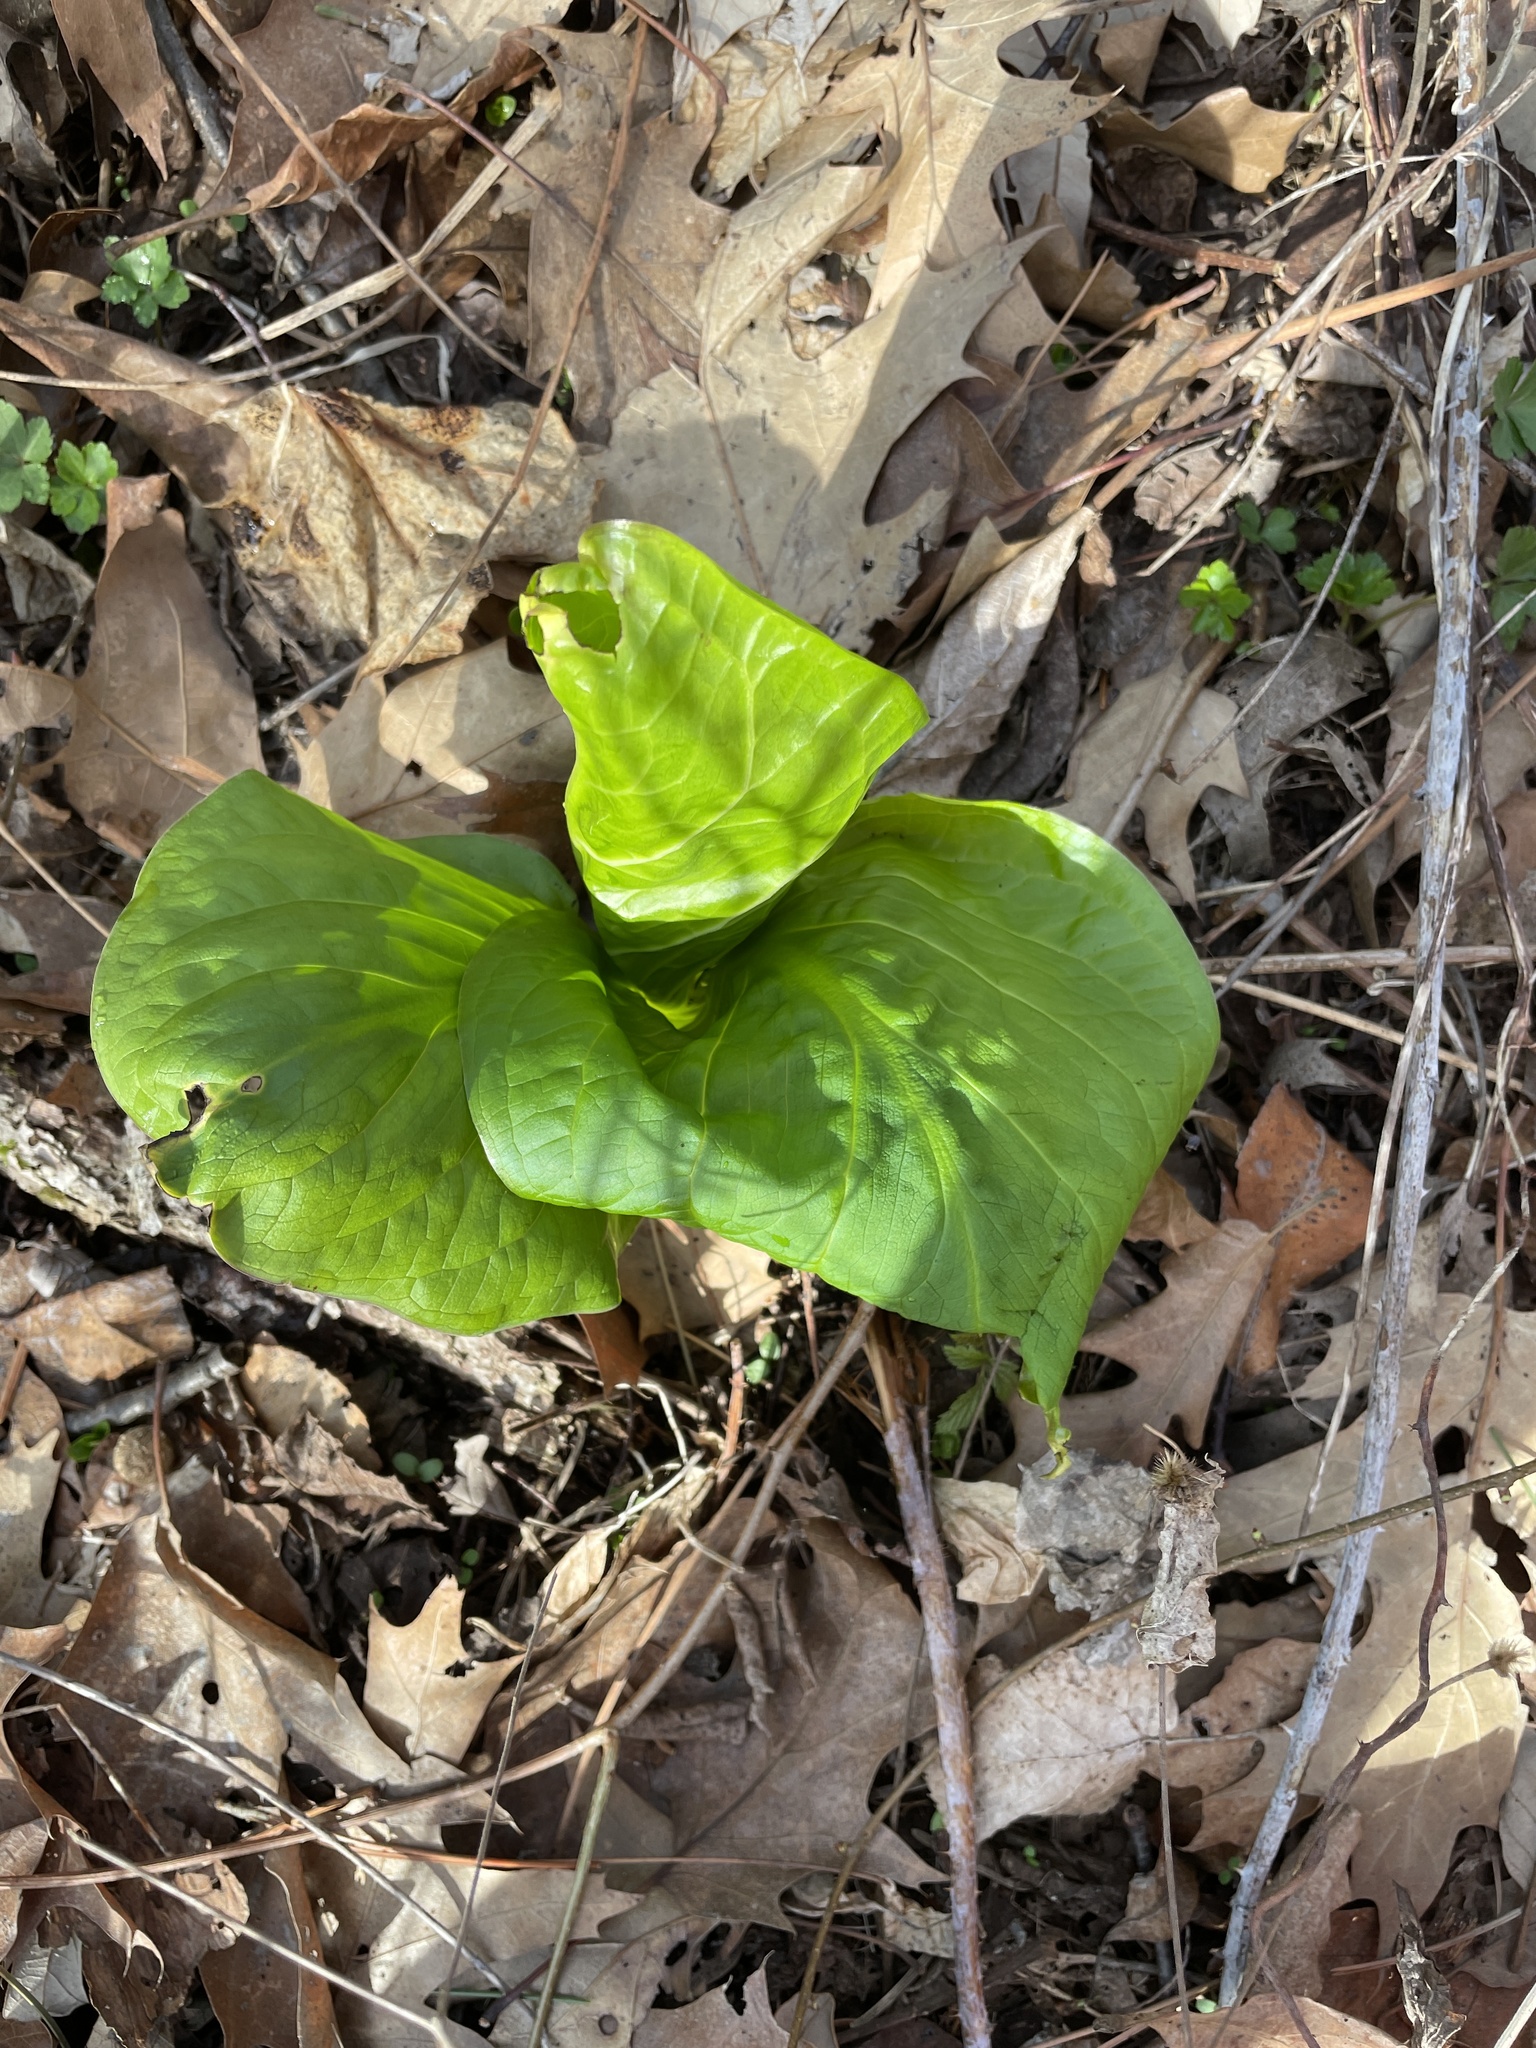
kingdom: Plantae
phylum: Tracheophyta
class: Liliopsida
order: Alismatales
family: Araceae
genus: Symplocarpus
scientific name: Symplocarpus foetidus
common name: Eastern skunk cabbage
